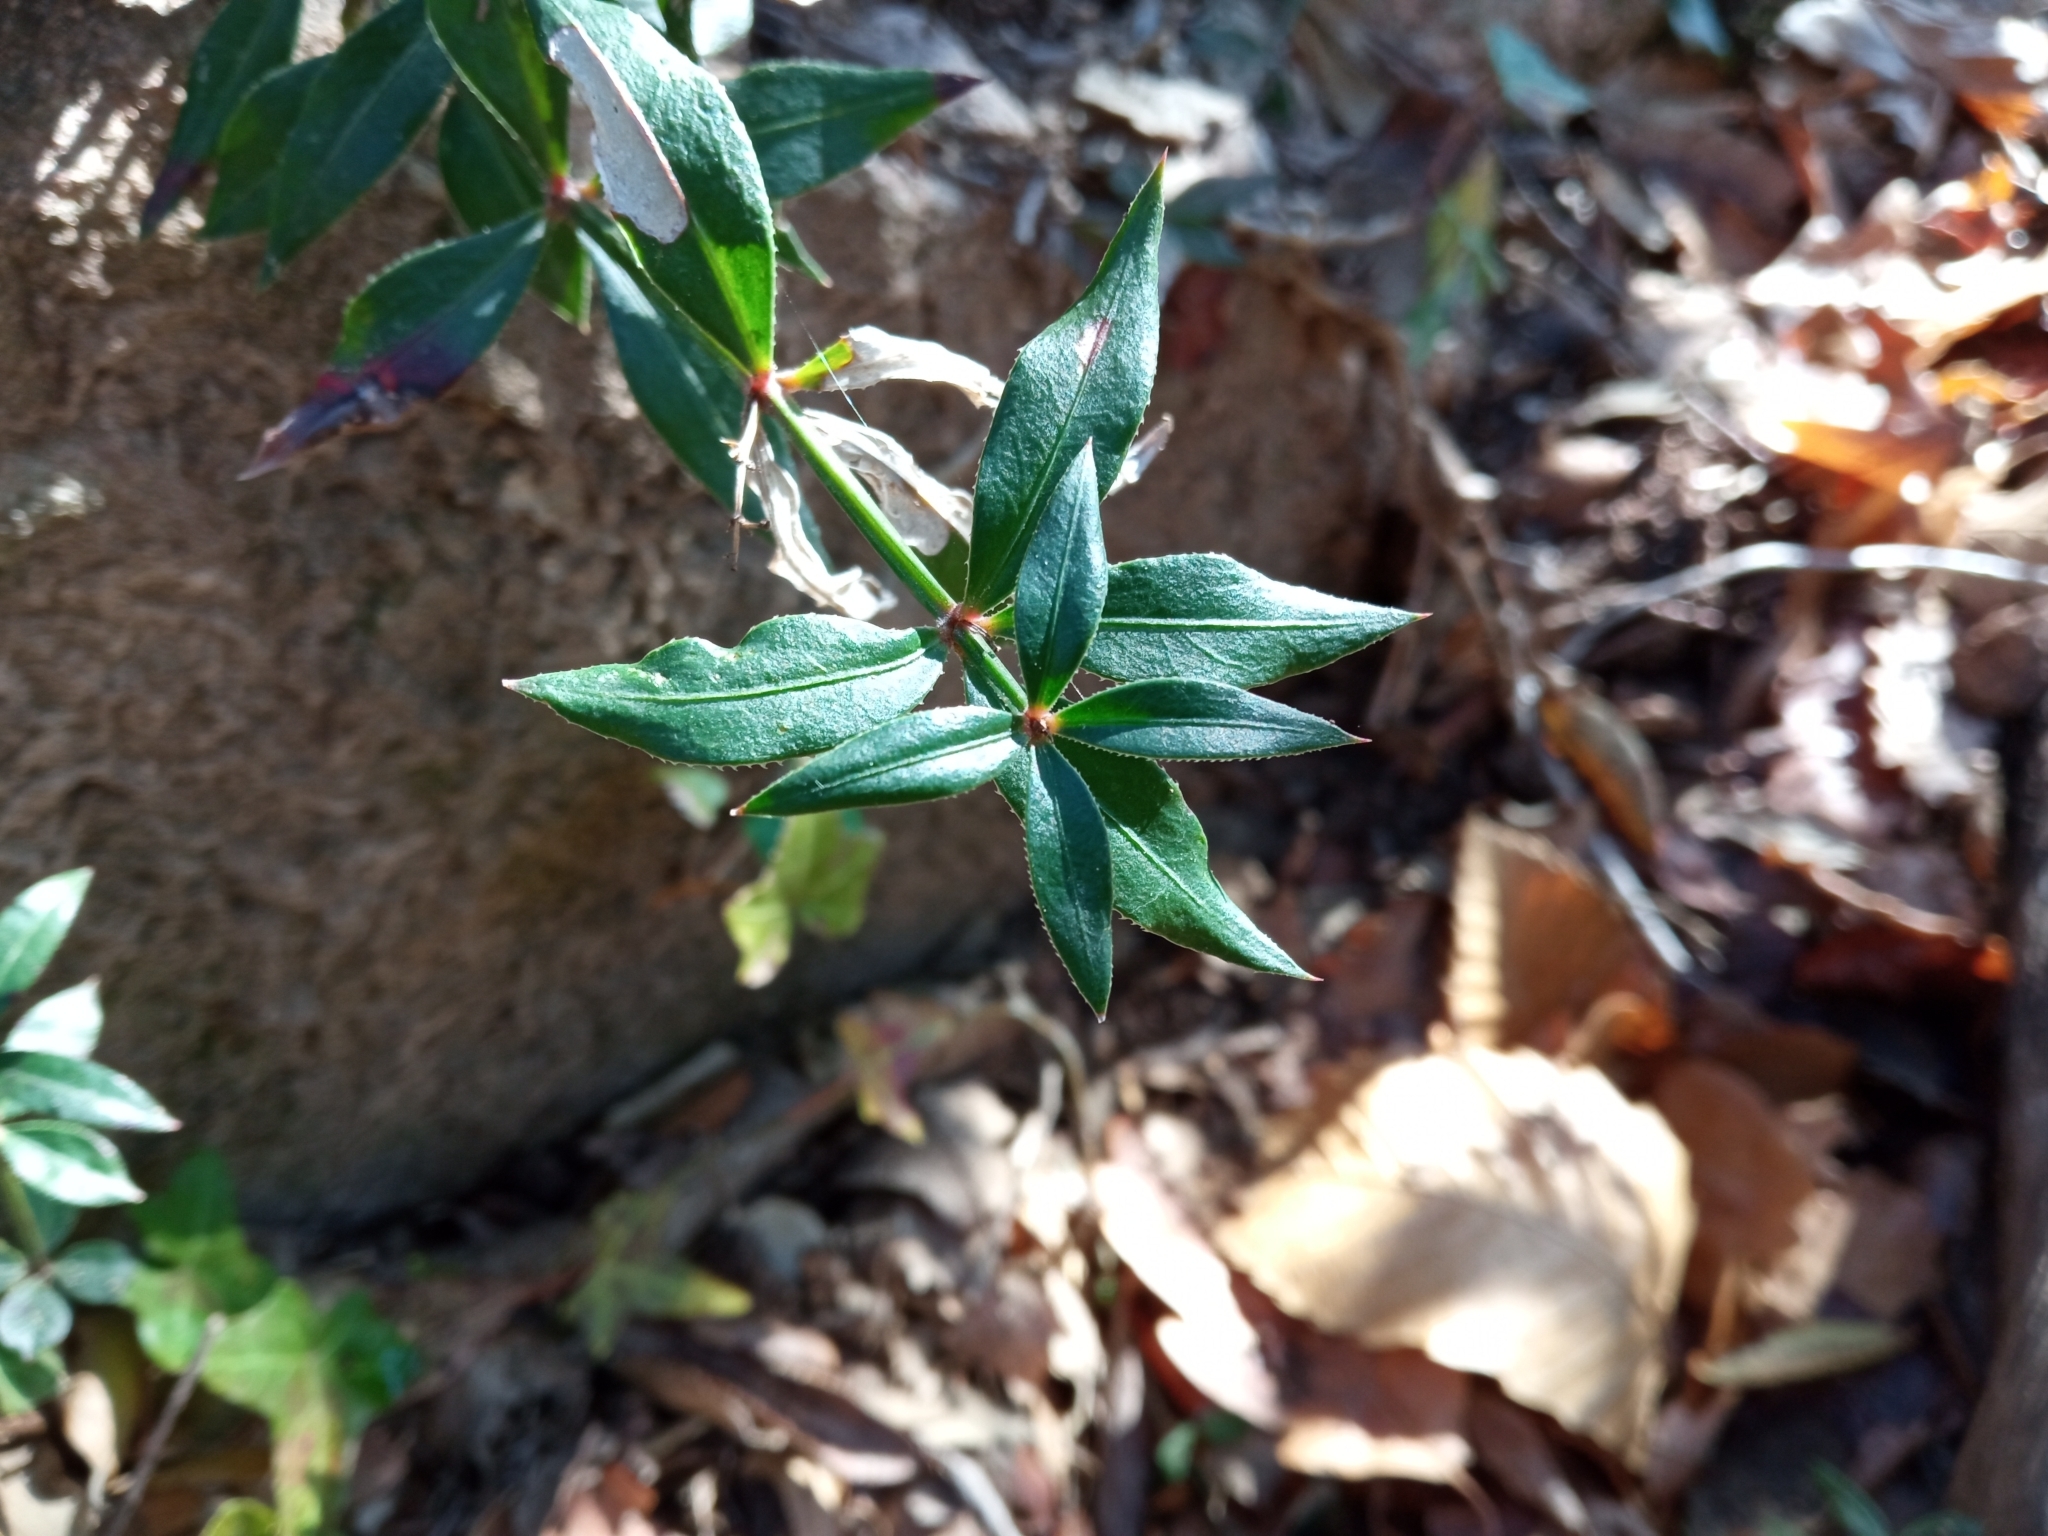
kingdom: Plantae
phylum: Tracheophyta
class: Magnoliopsida
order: Gentianales
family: Rubiaceae
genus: Rubia
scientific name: Rubia peregrina
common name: Wild madder
